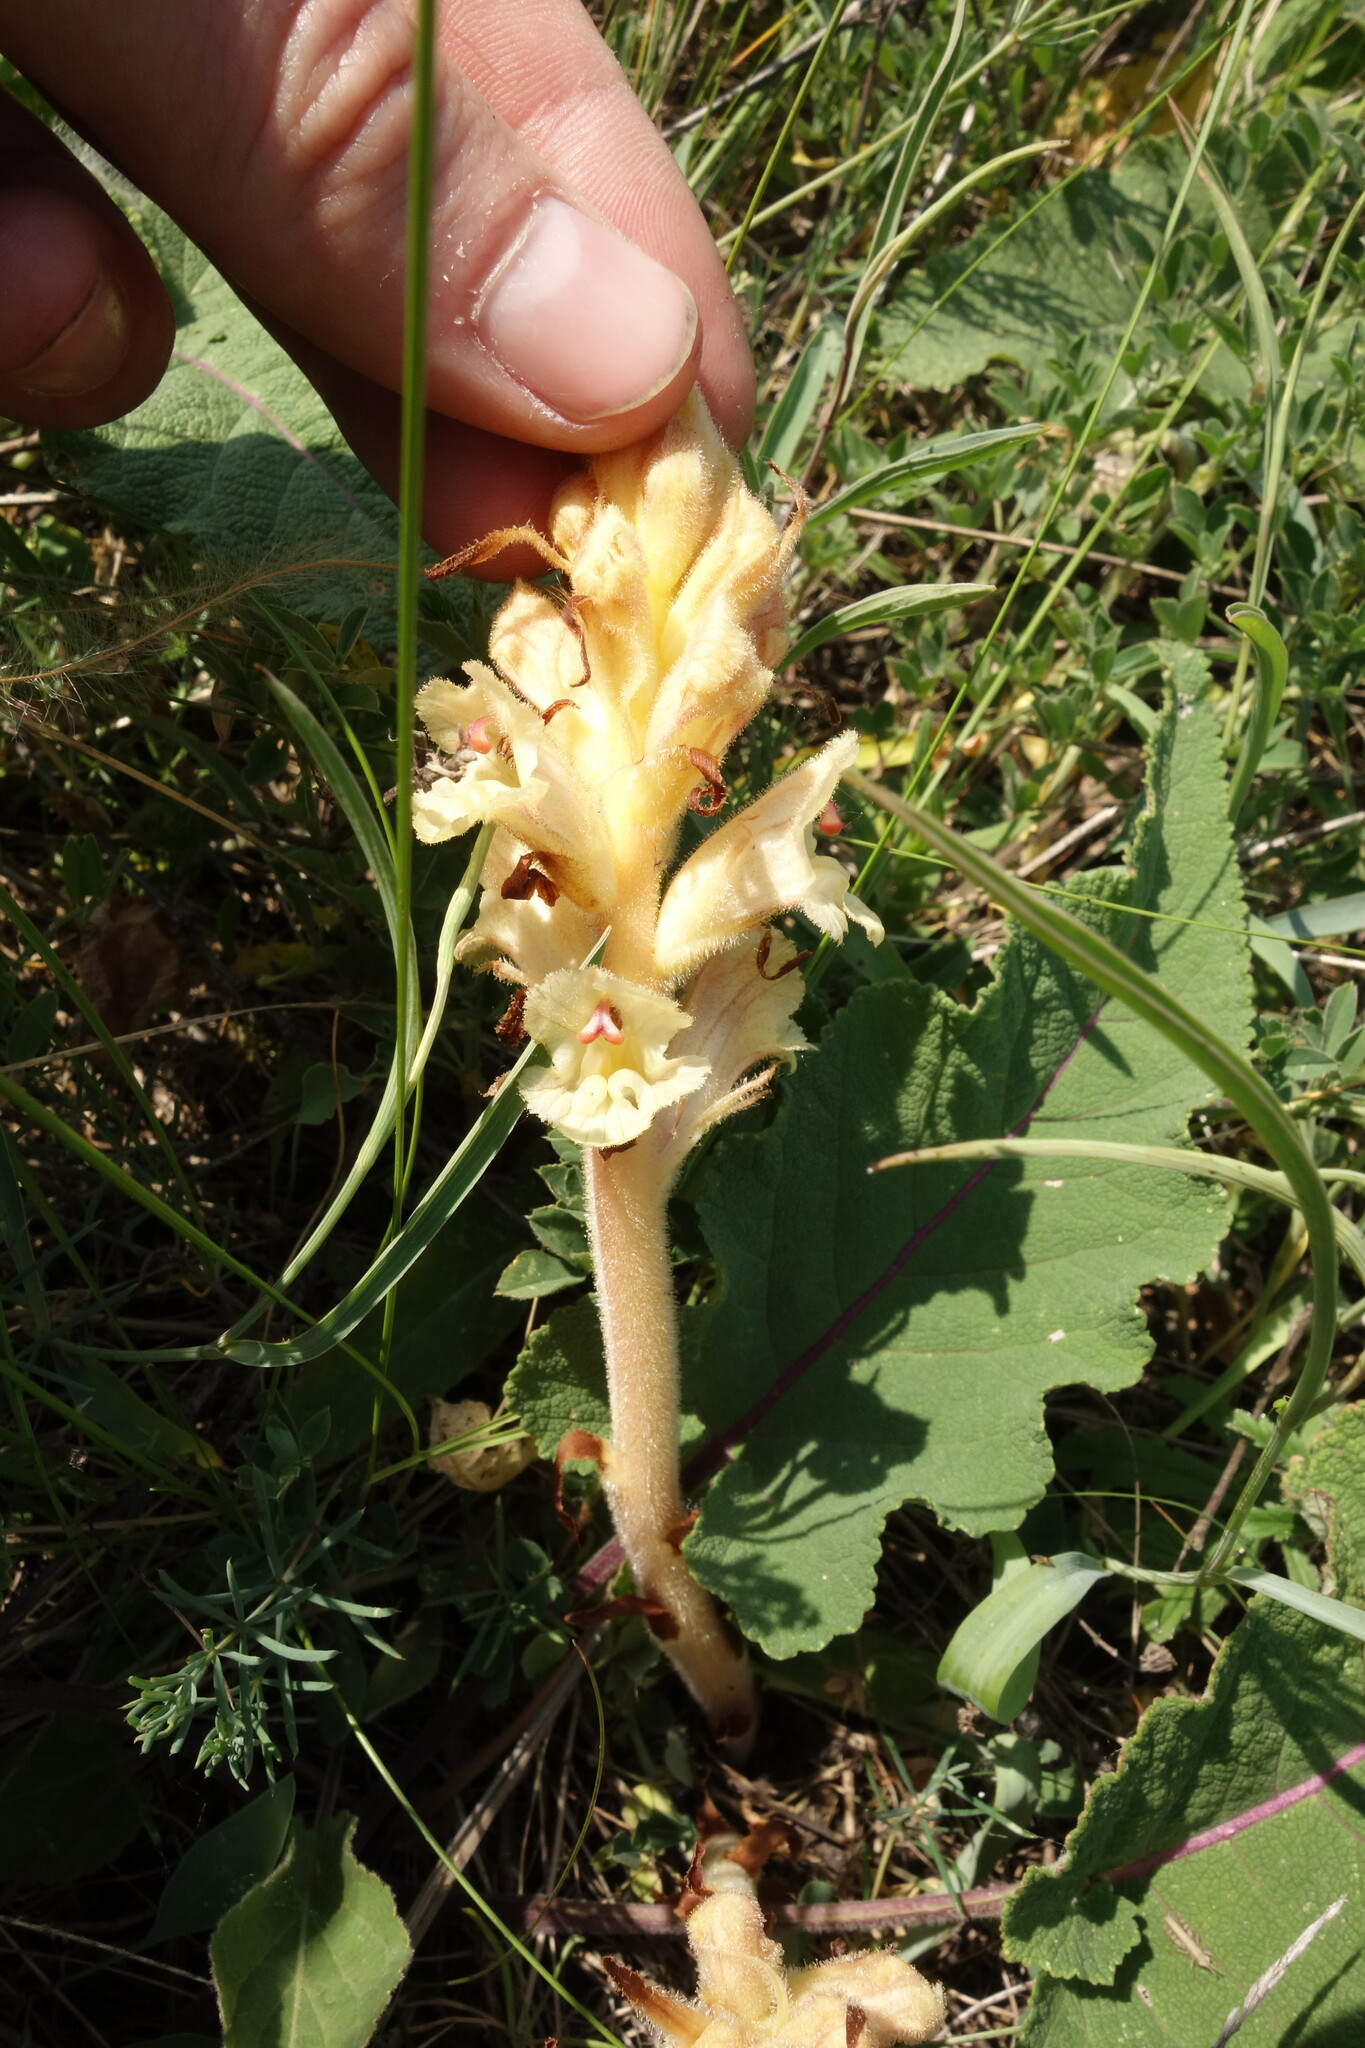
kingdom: Plantae
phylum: Tracheophyta
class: Magnoliopsida
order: Lamiales
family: Orobanchaceae
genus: Orobanche
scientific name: Orobanche alba
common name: Thyme broomrape
